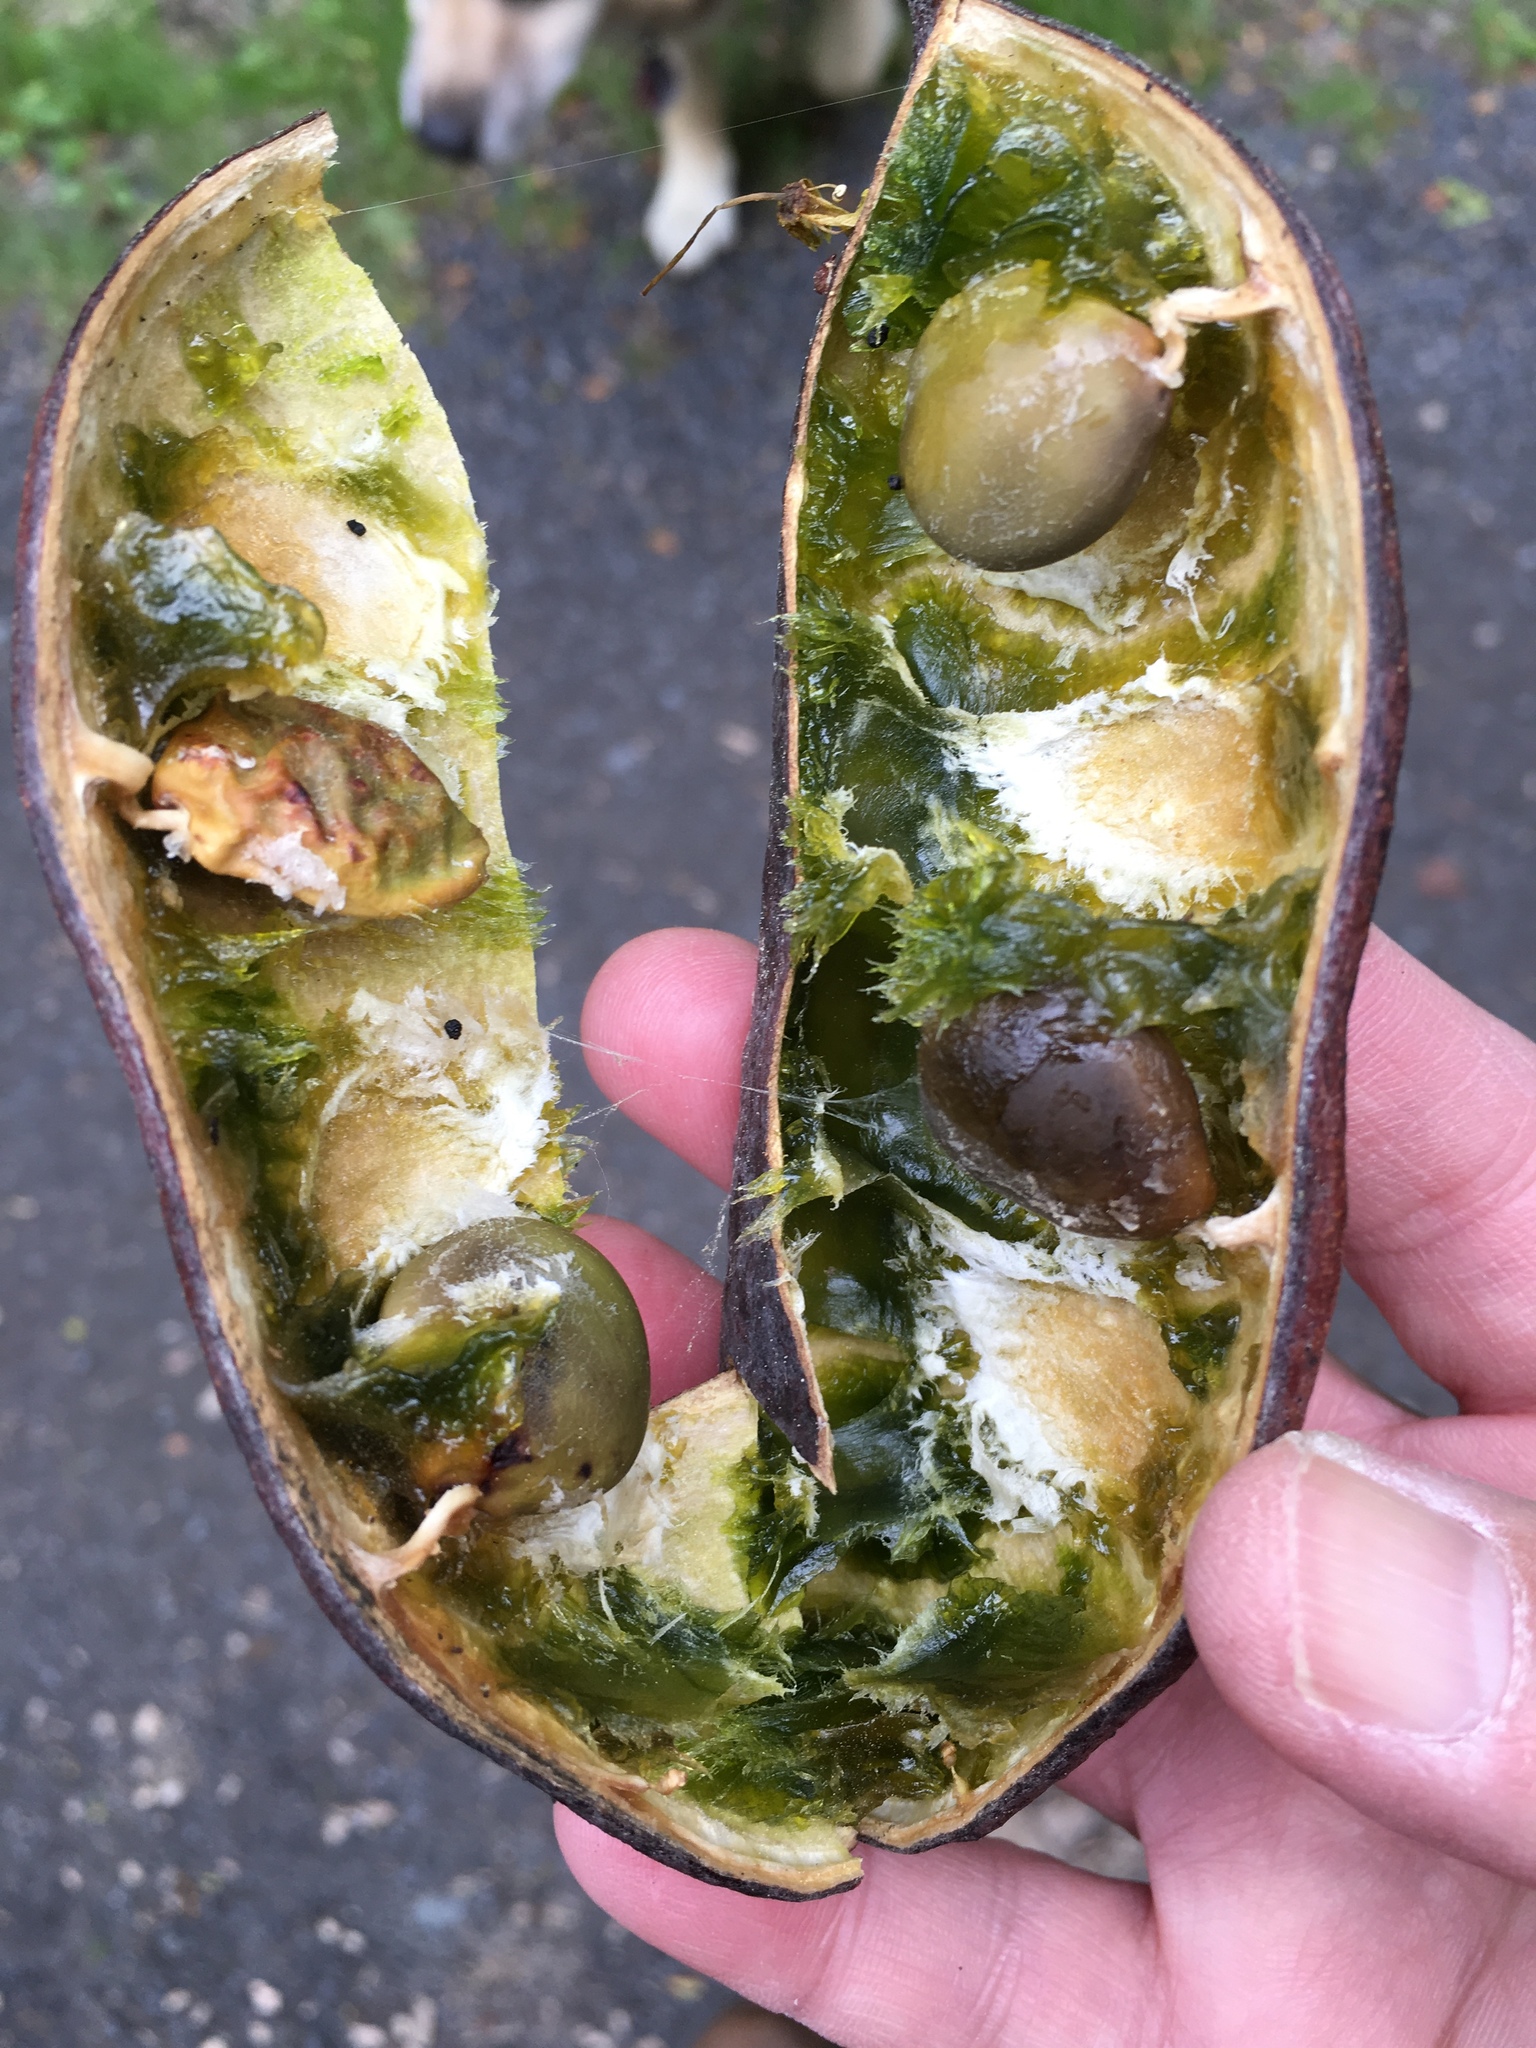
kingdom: Plantae
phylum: Tracheophyta
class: Magnoliopsida
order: Fabales
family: Fabaceae
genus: Gymnocladus
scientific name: Gymnocladus dioicus
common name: Kentucky coffee-tree
